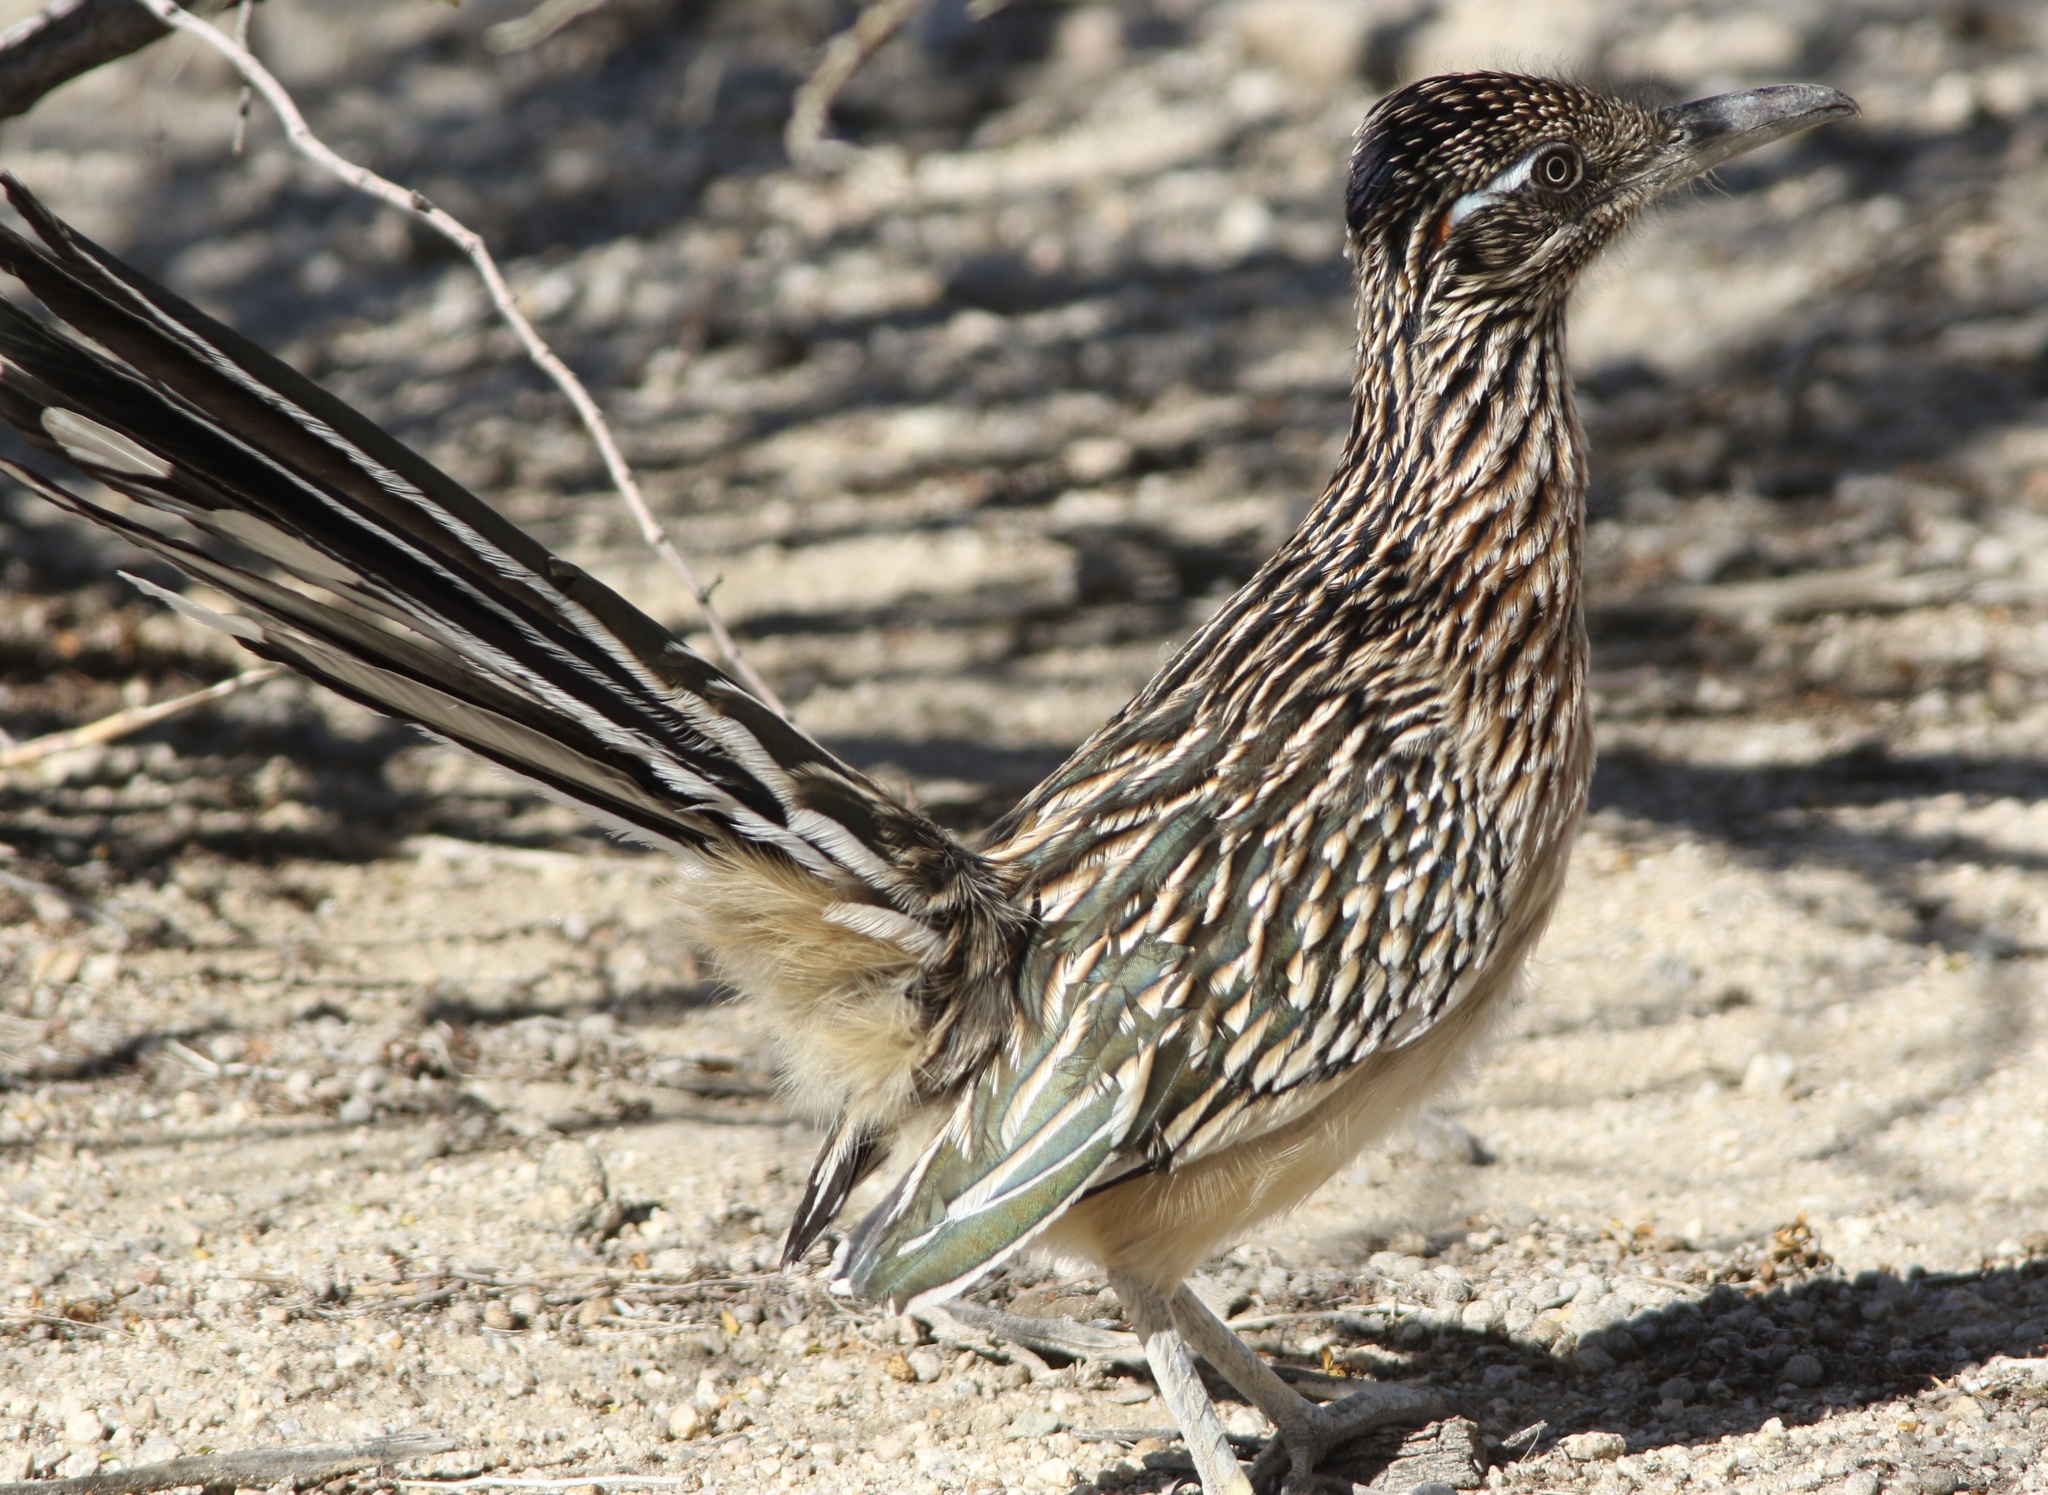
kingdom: Animalia
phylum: Chordata
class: Aves
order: Cuculiformes
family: Cuculidae
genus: Geococcyx
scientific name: Geococcyx californianus
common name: Greater roadrunner
